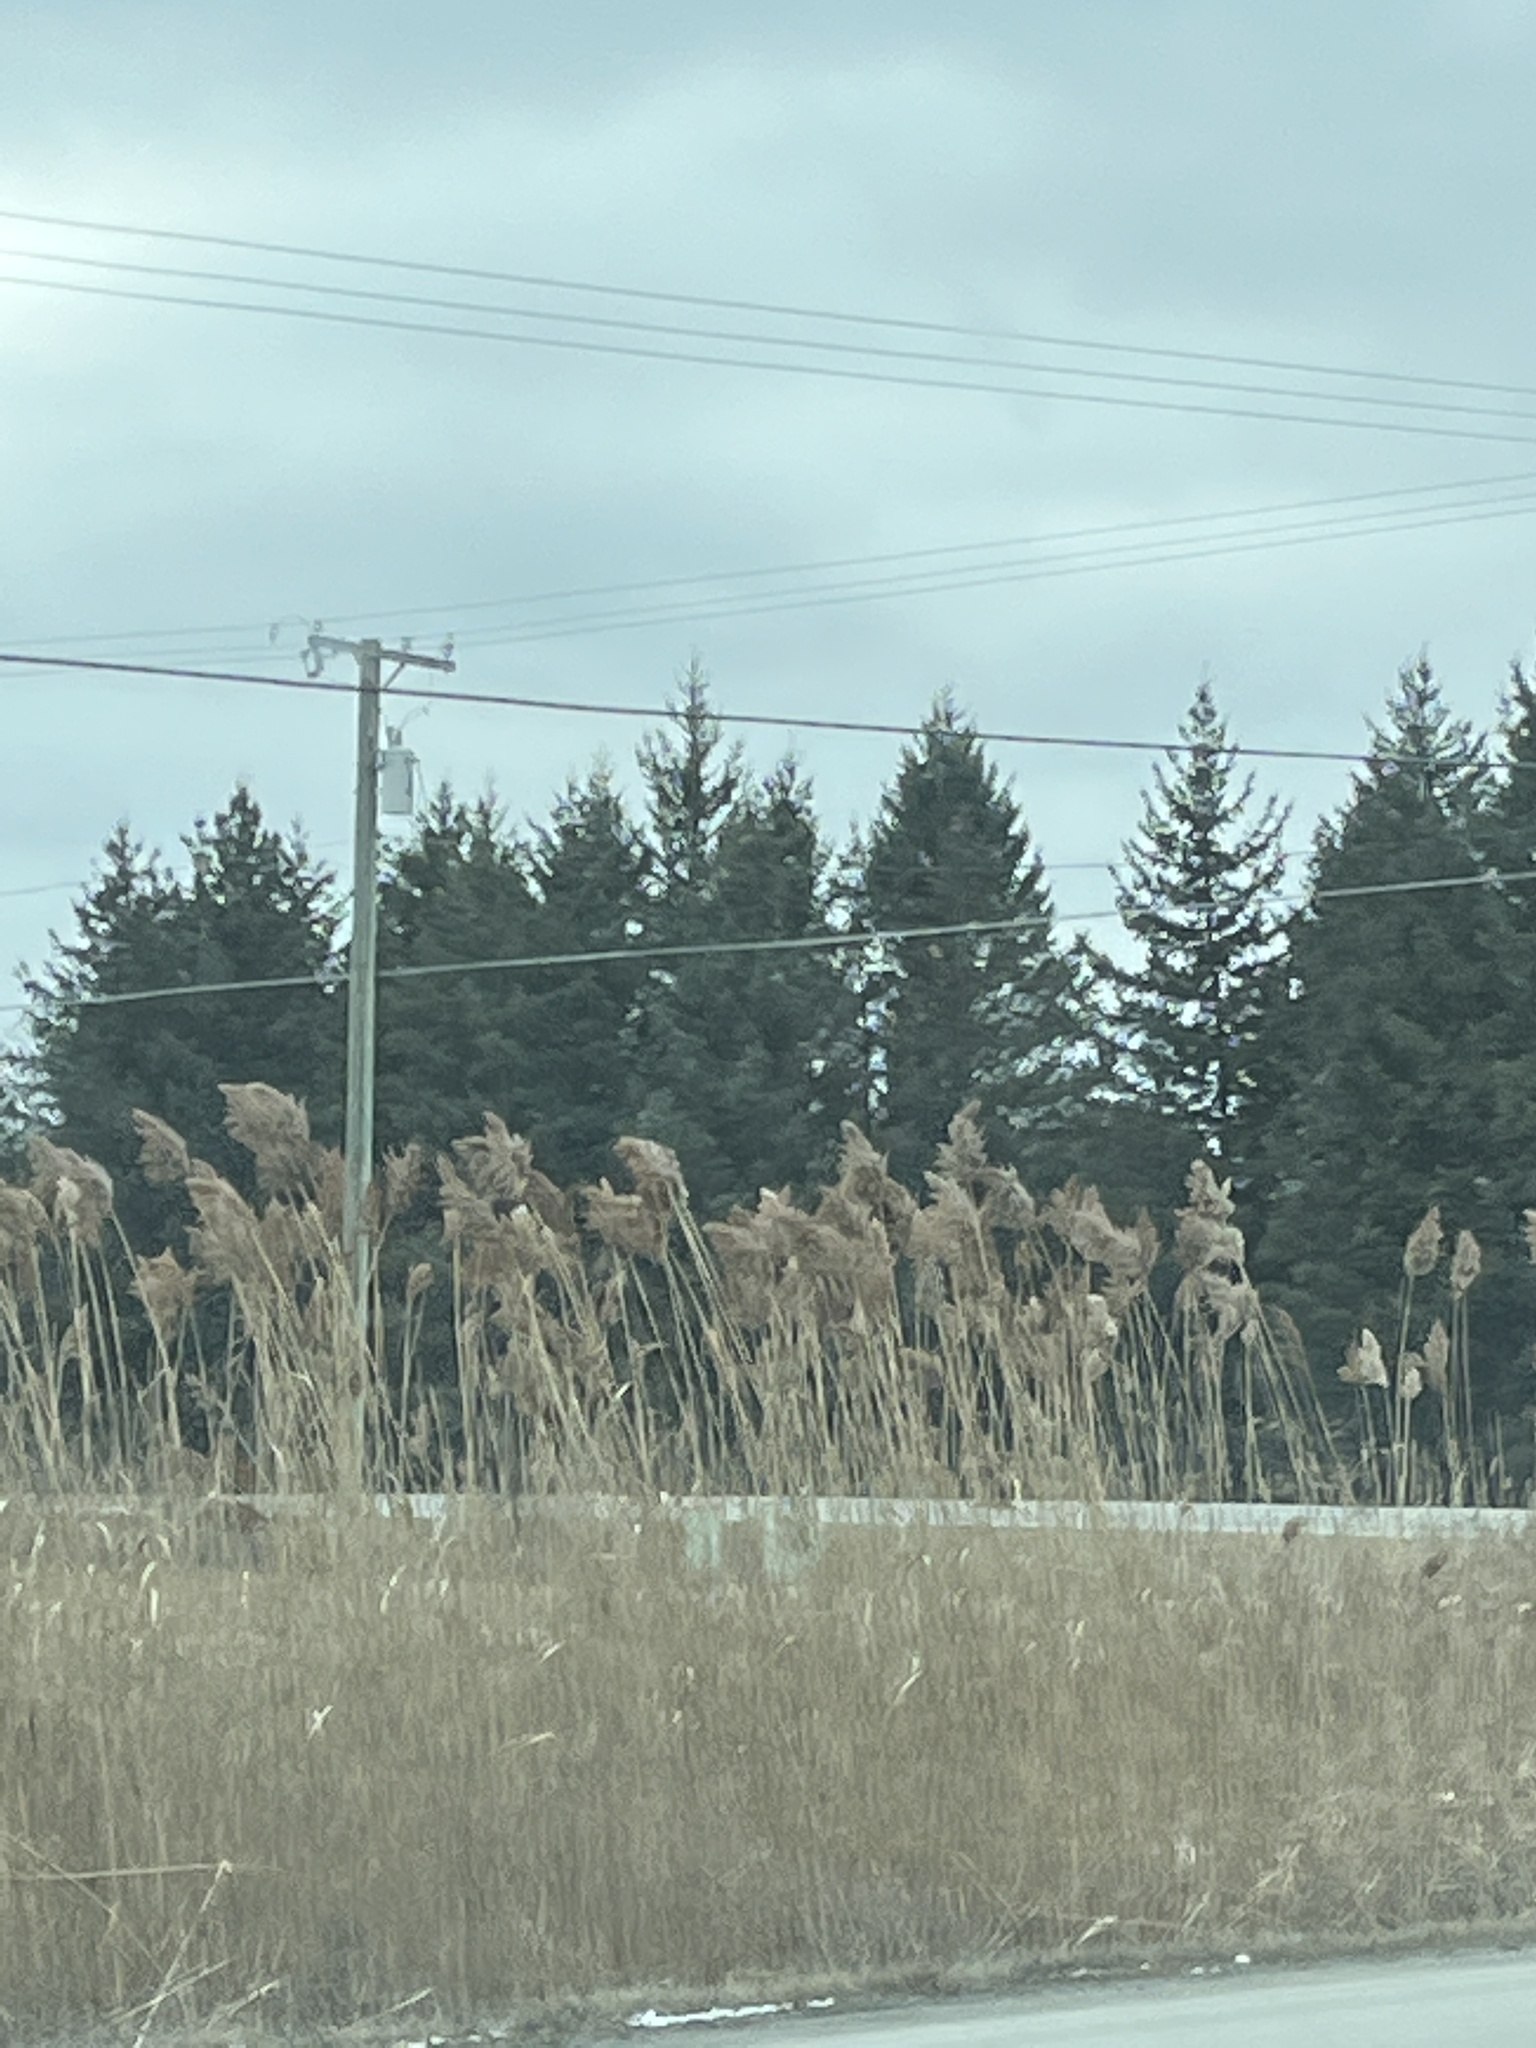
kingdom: Plantae
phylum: Tracheophyta
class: Liliopsida
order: Poales
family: Poaceae
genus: Phragmites
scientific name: Phragmites australis
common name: Common reed
